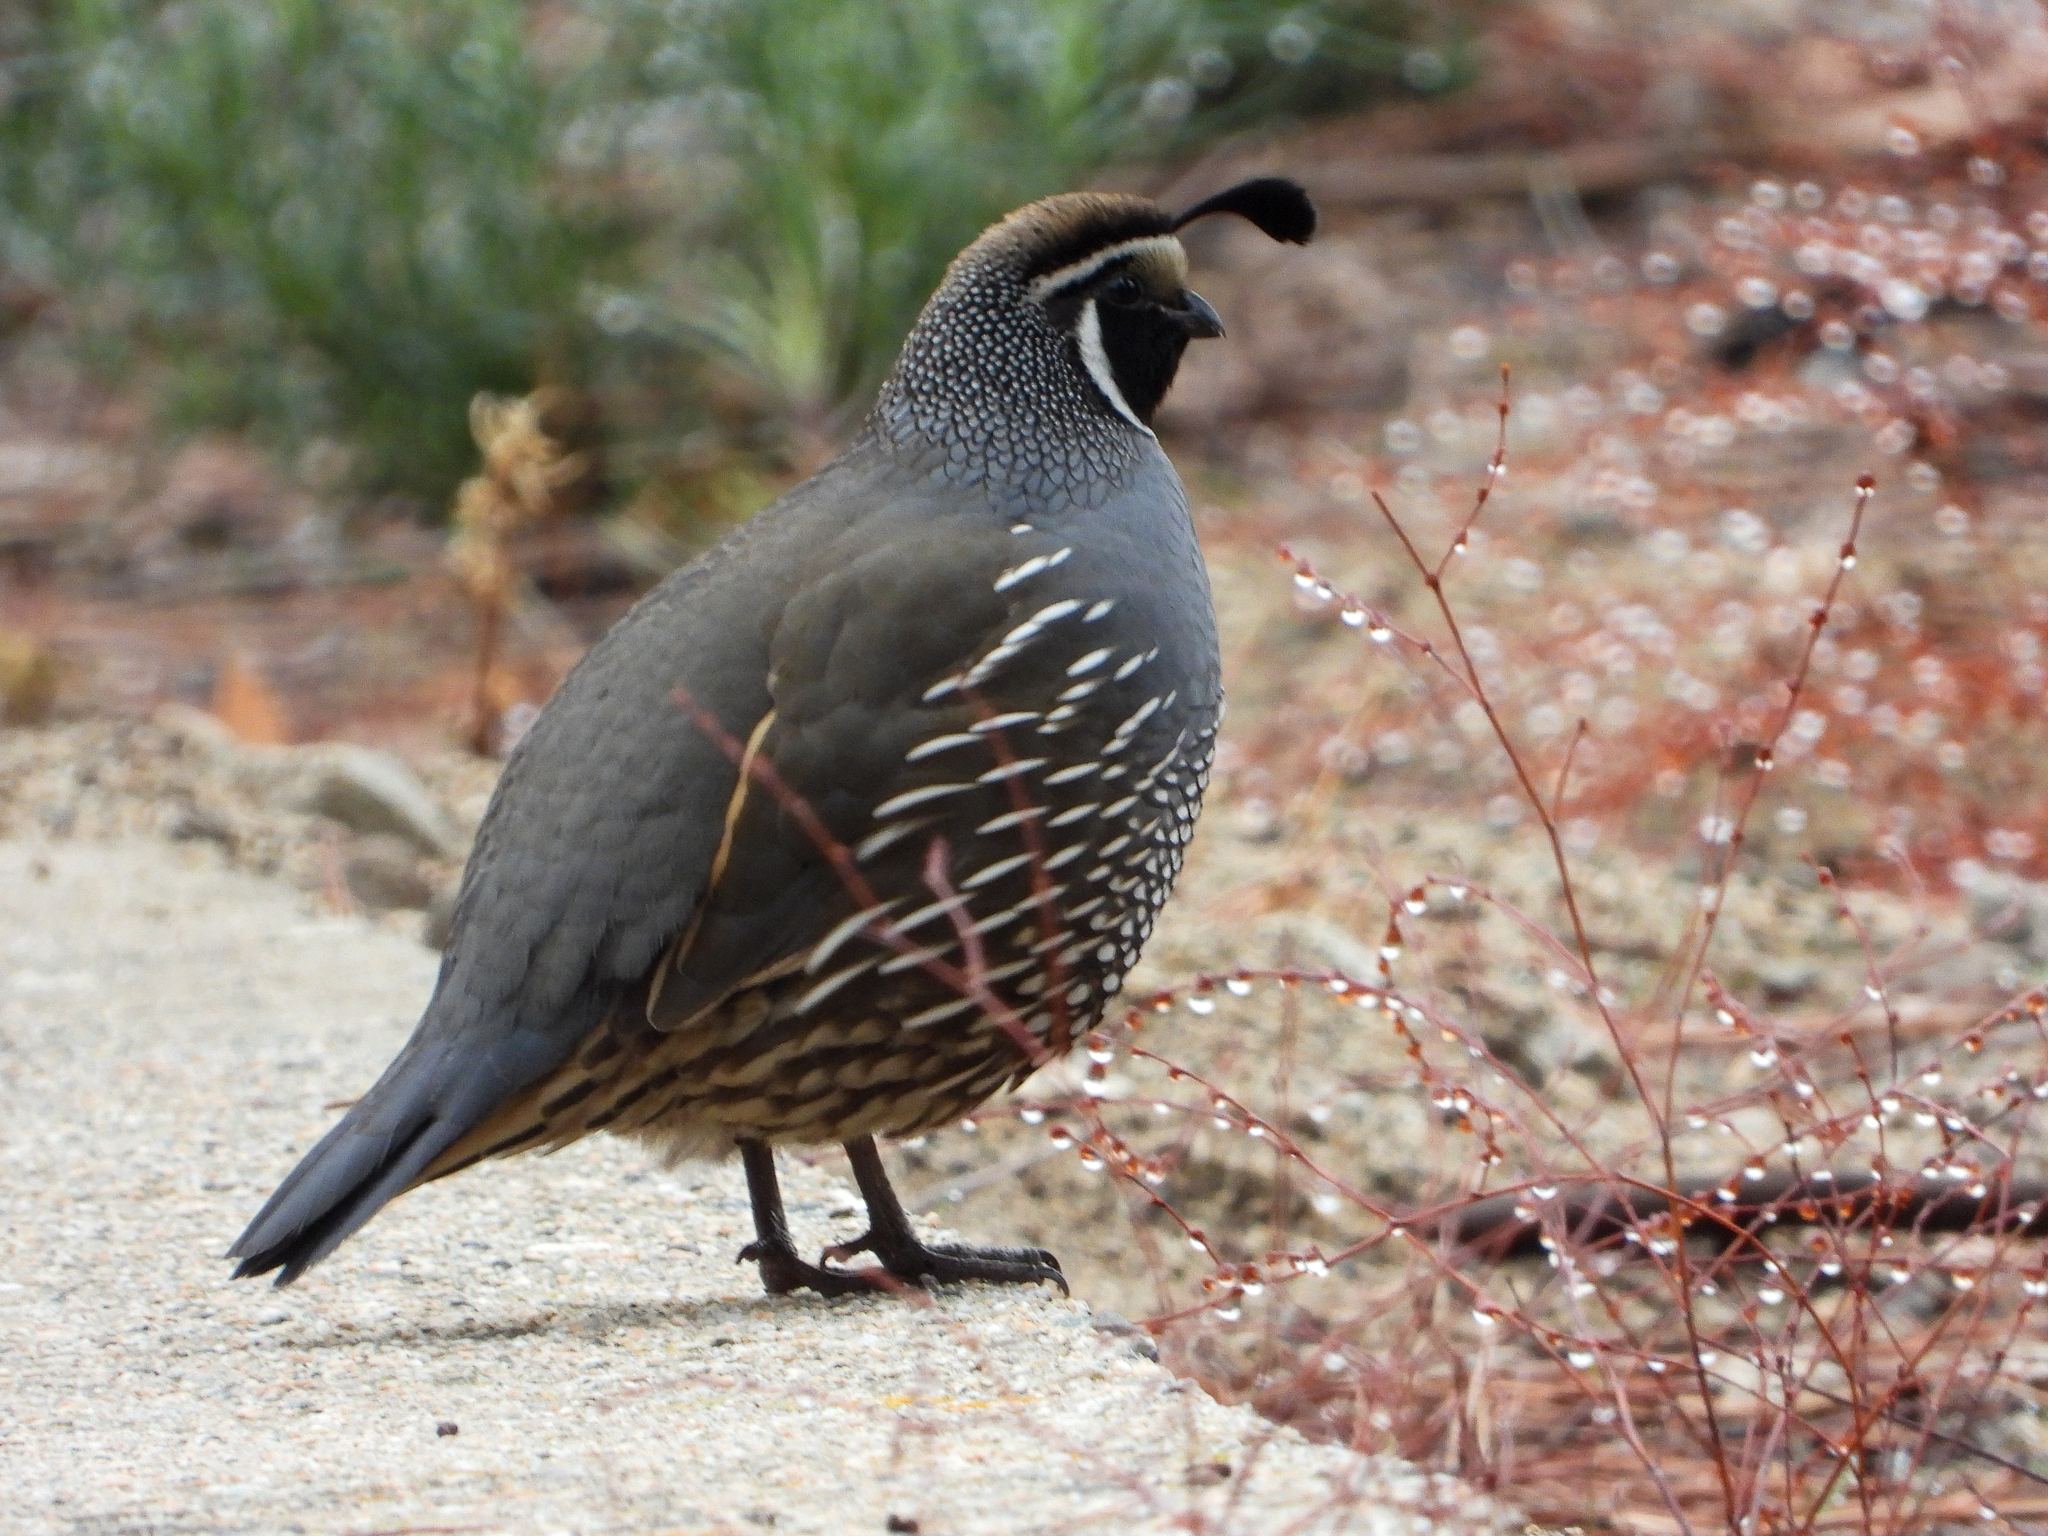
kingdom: Animalia
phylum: Chordata
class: Aves
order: Galliformes
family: Odontophoridae
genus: Callipepla
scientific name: Callipepla californica
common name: California quail
